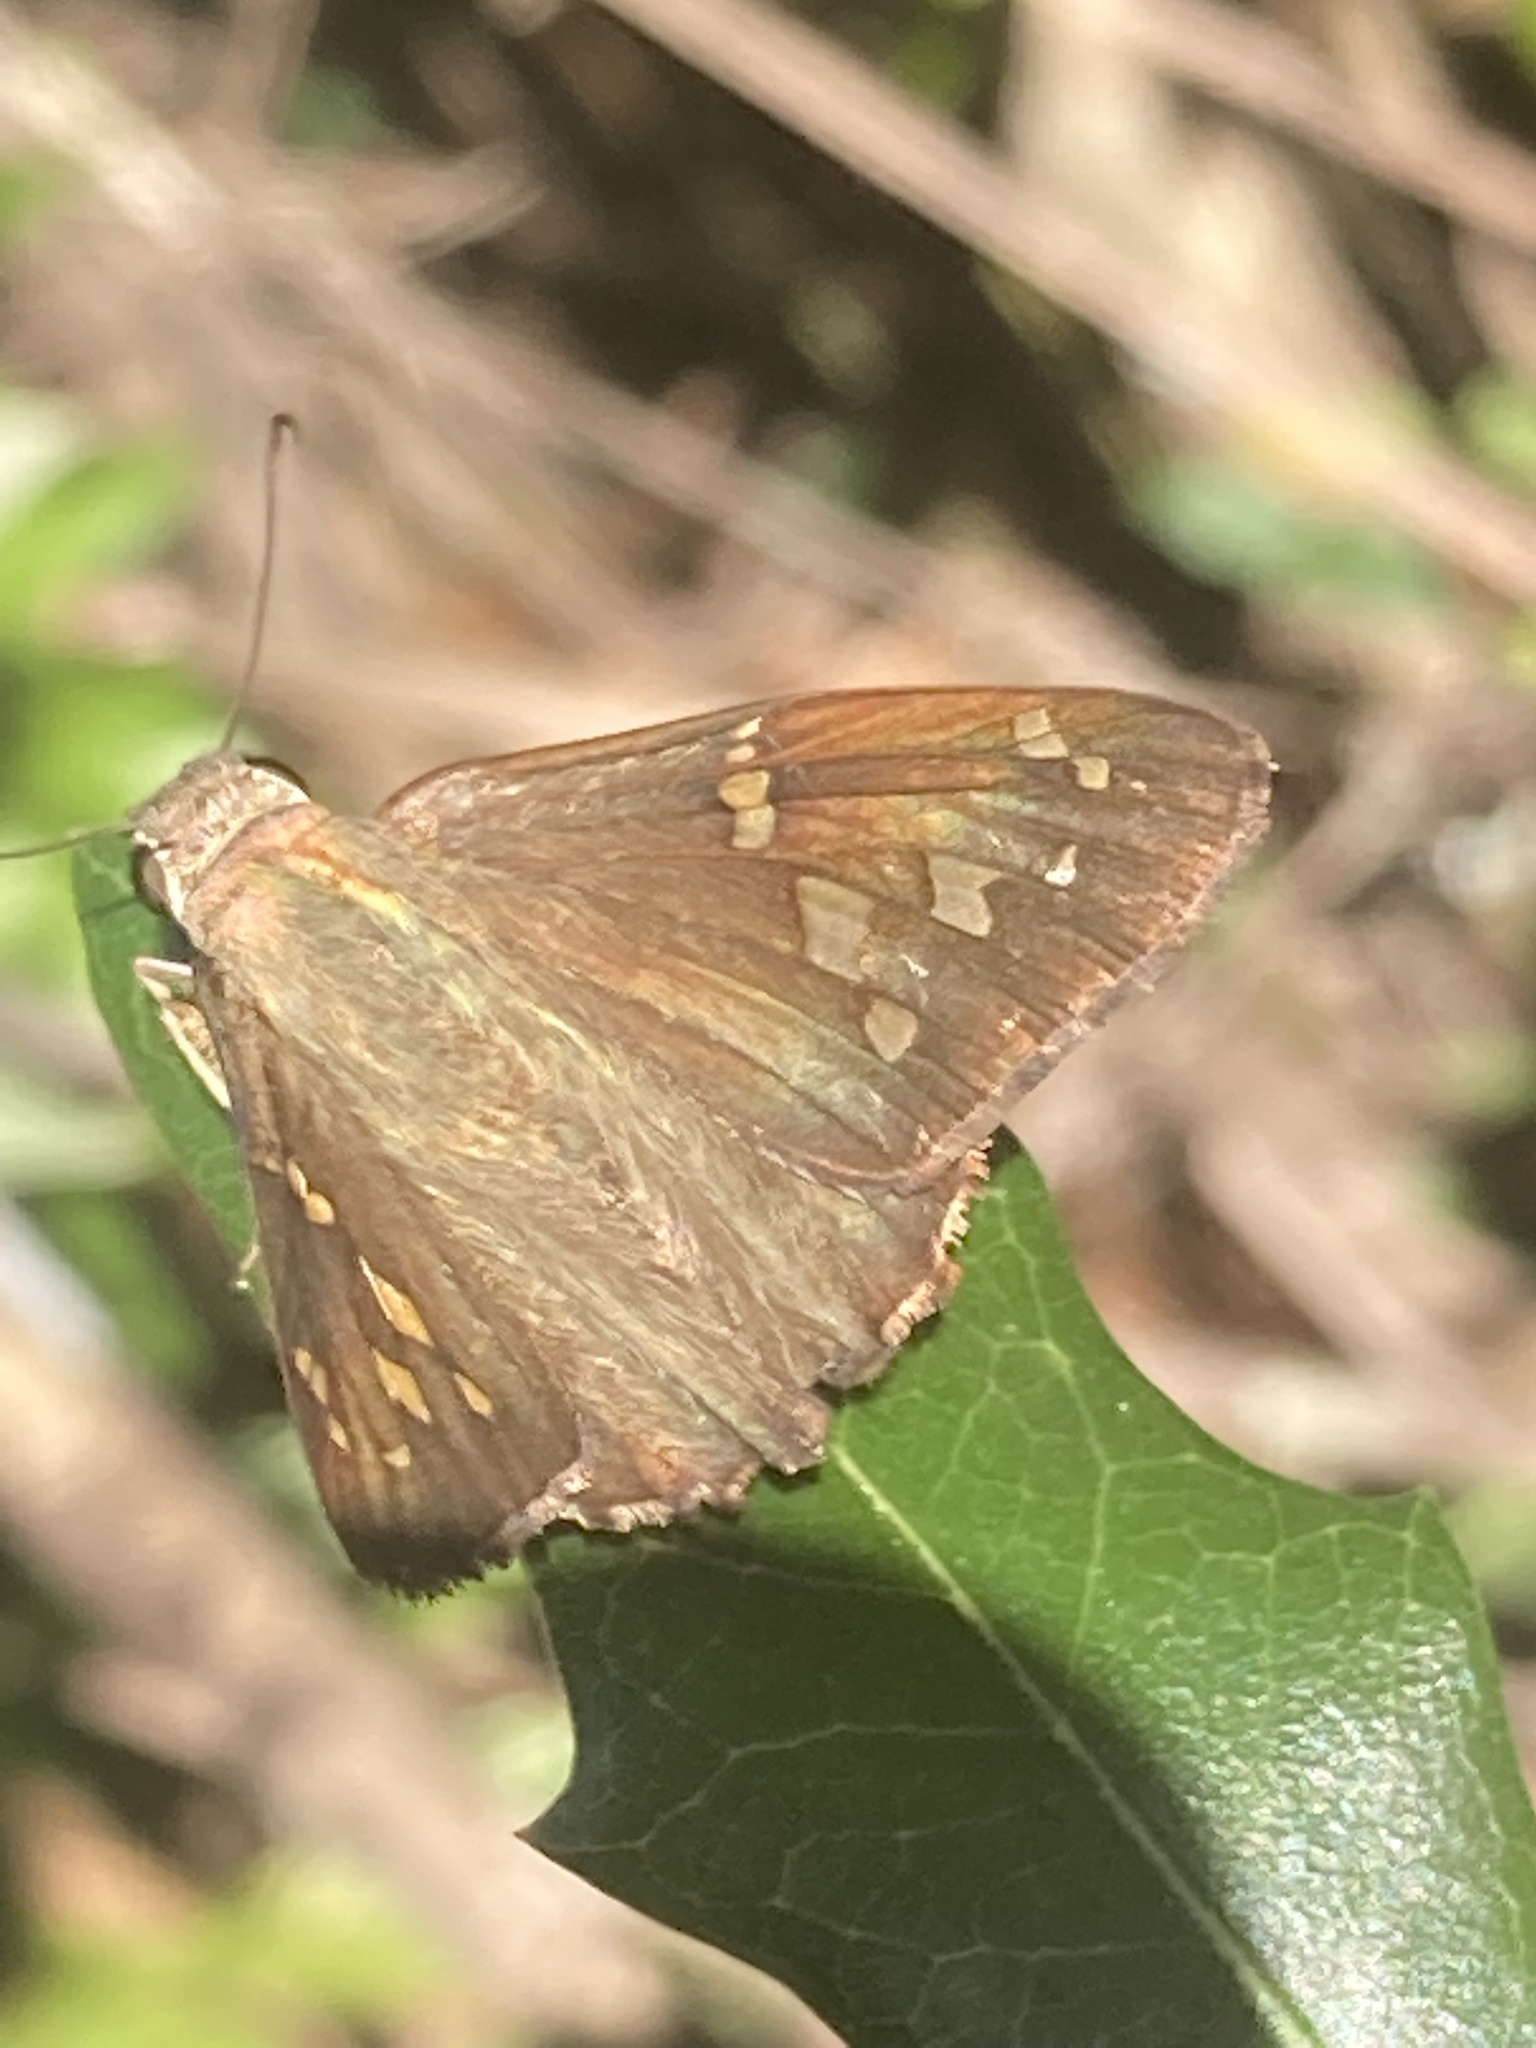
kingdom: Animalia
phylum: Arthropoda
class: Insecta
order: Lepidoptera
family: Hesperiidae
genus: Thorybes
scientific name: Thorybes
